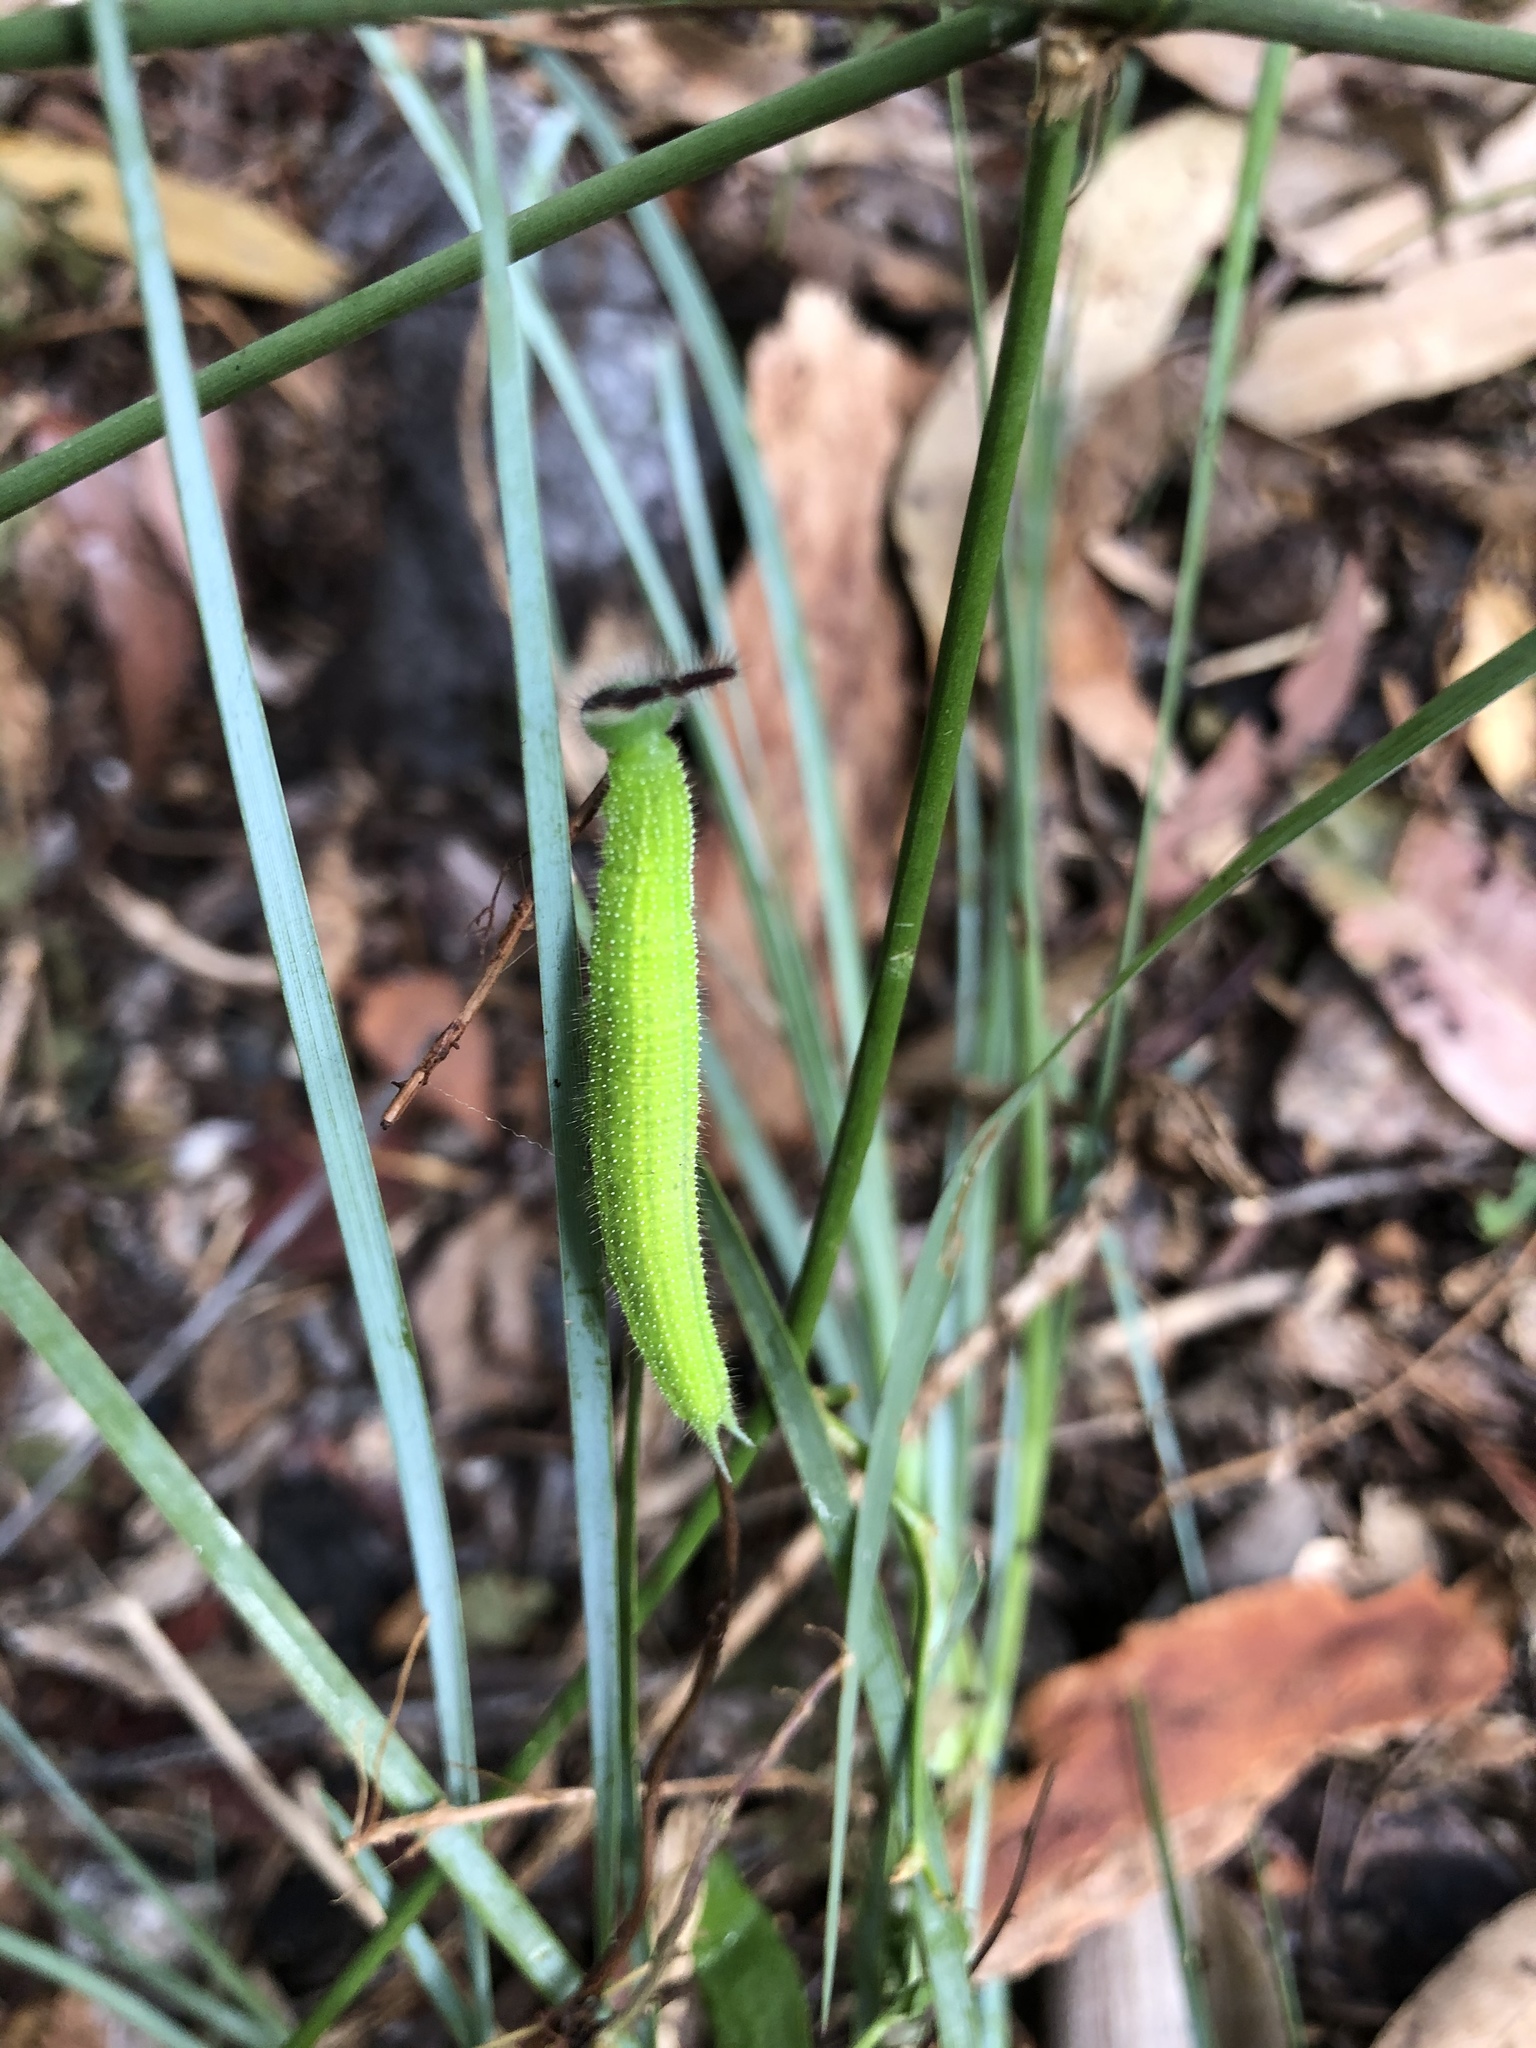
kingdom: Animalia
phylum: Arthropoda
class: Insecta
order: Lepidoptera
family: Nymphalidae
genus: Melanitis
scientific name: Melanitis leda
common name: Twilight brown
